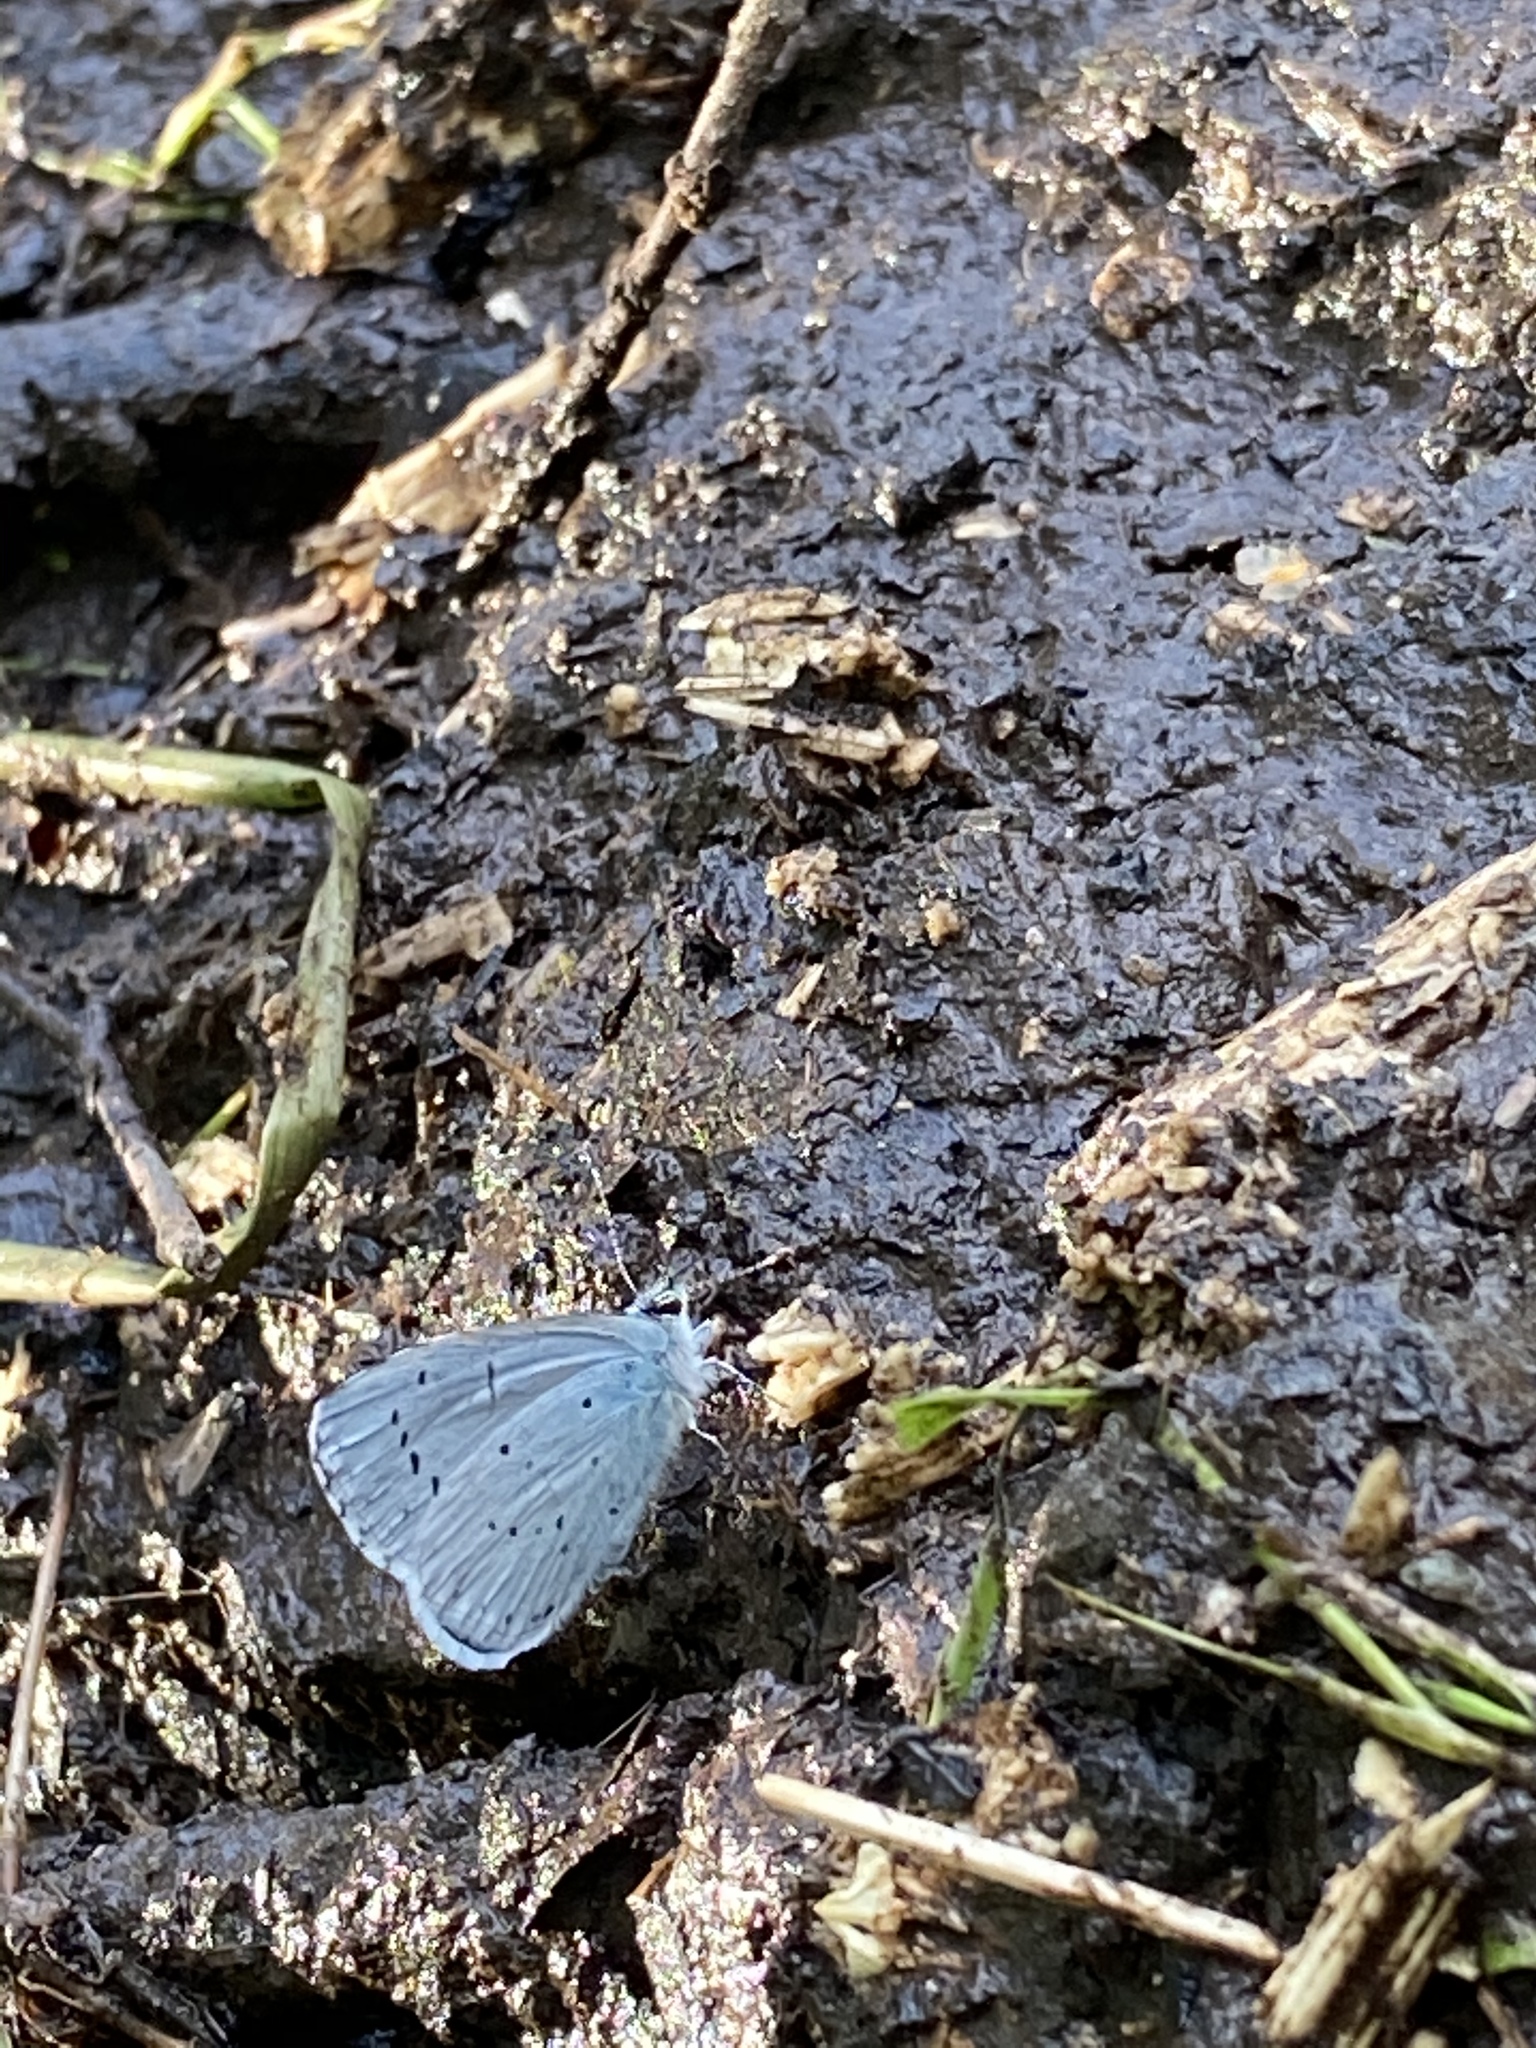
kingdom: Animalia
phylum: Arthropoda
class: Insecta
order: Lepidoptera
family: Lycaenidae
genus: Celastrina
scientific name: Celastrina argiolus
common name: Holly blue
